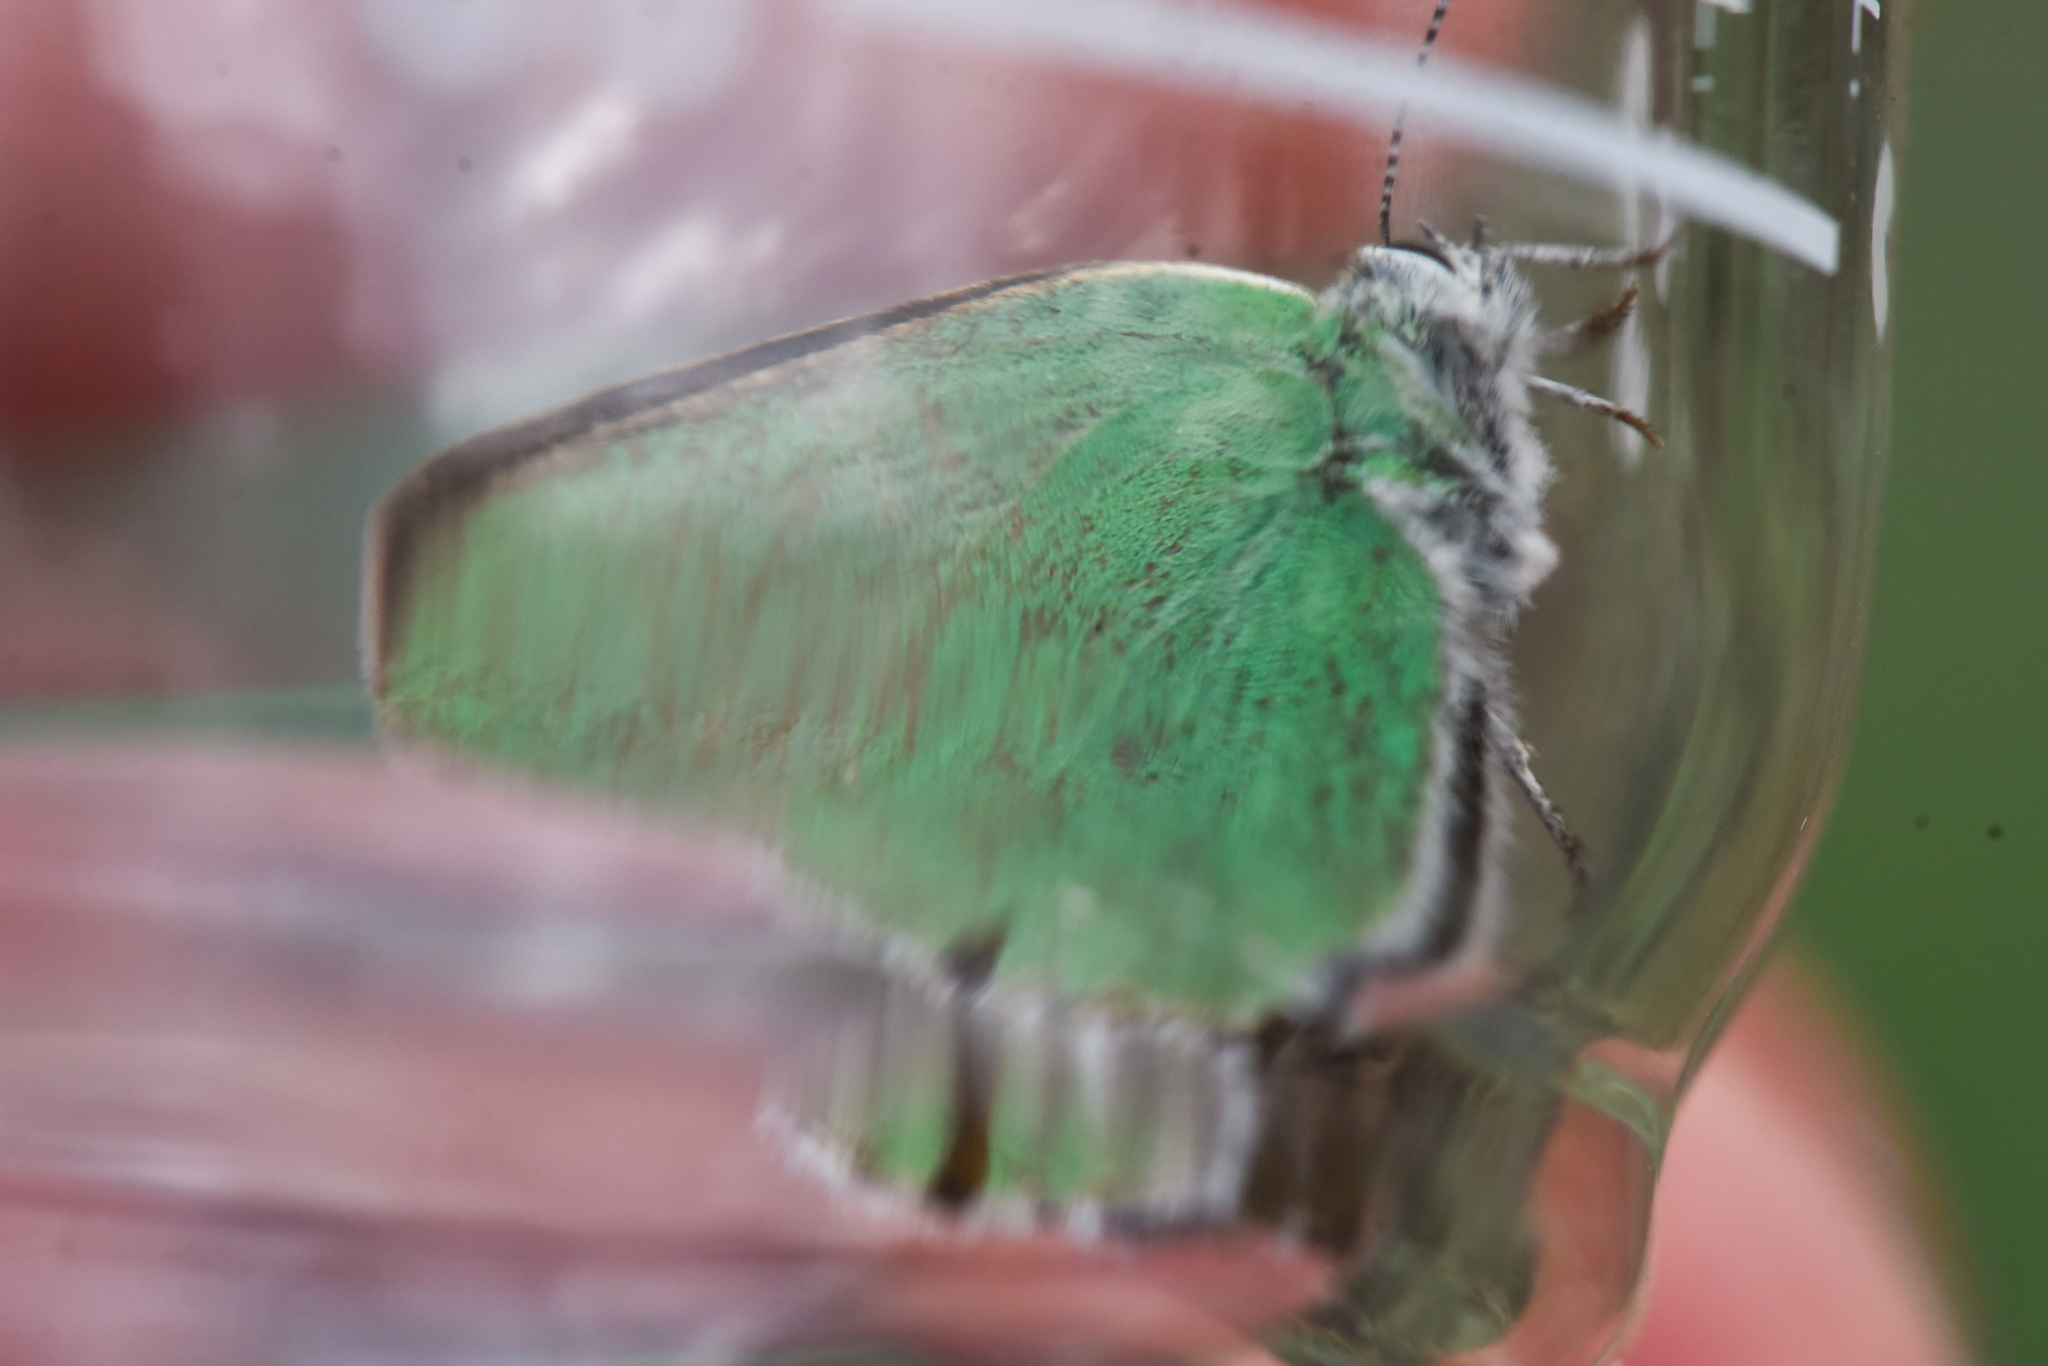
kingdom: Animalia
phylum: Arthropoda
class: Insecta
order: Lepidoptera
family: Lycaenidae
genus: Callophrys
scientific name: Callophrys affinis
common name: Western green hairstreak
